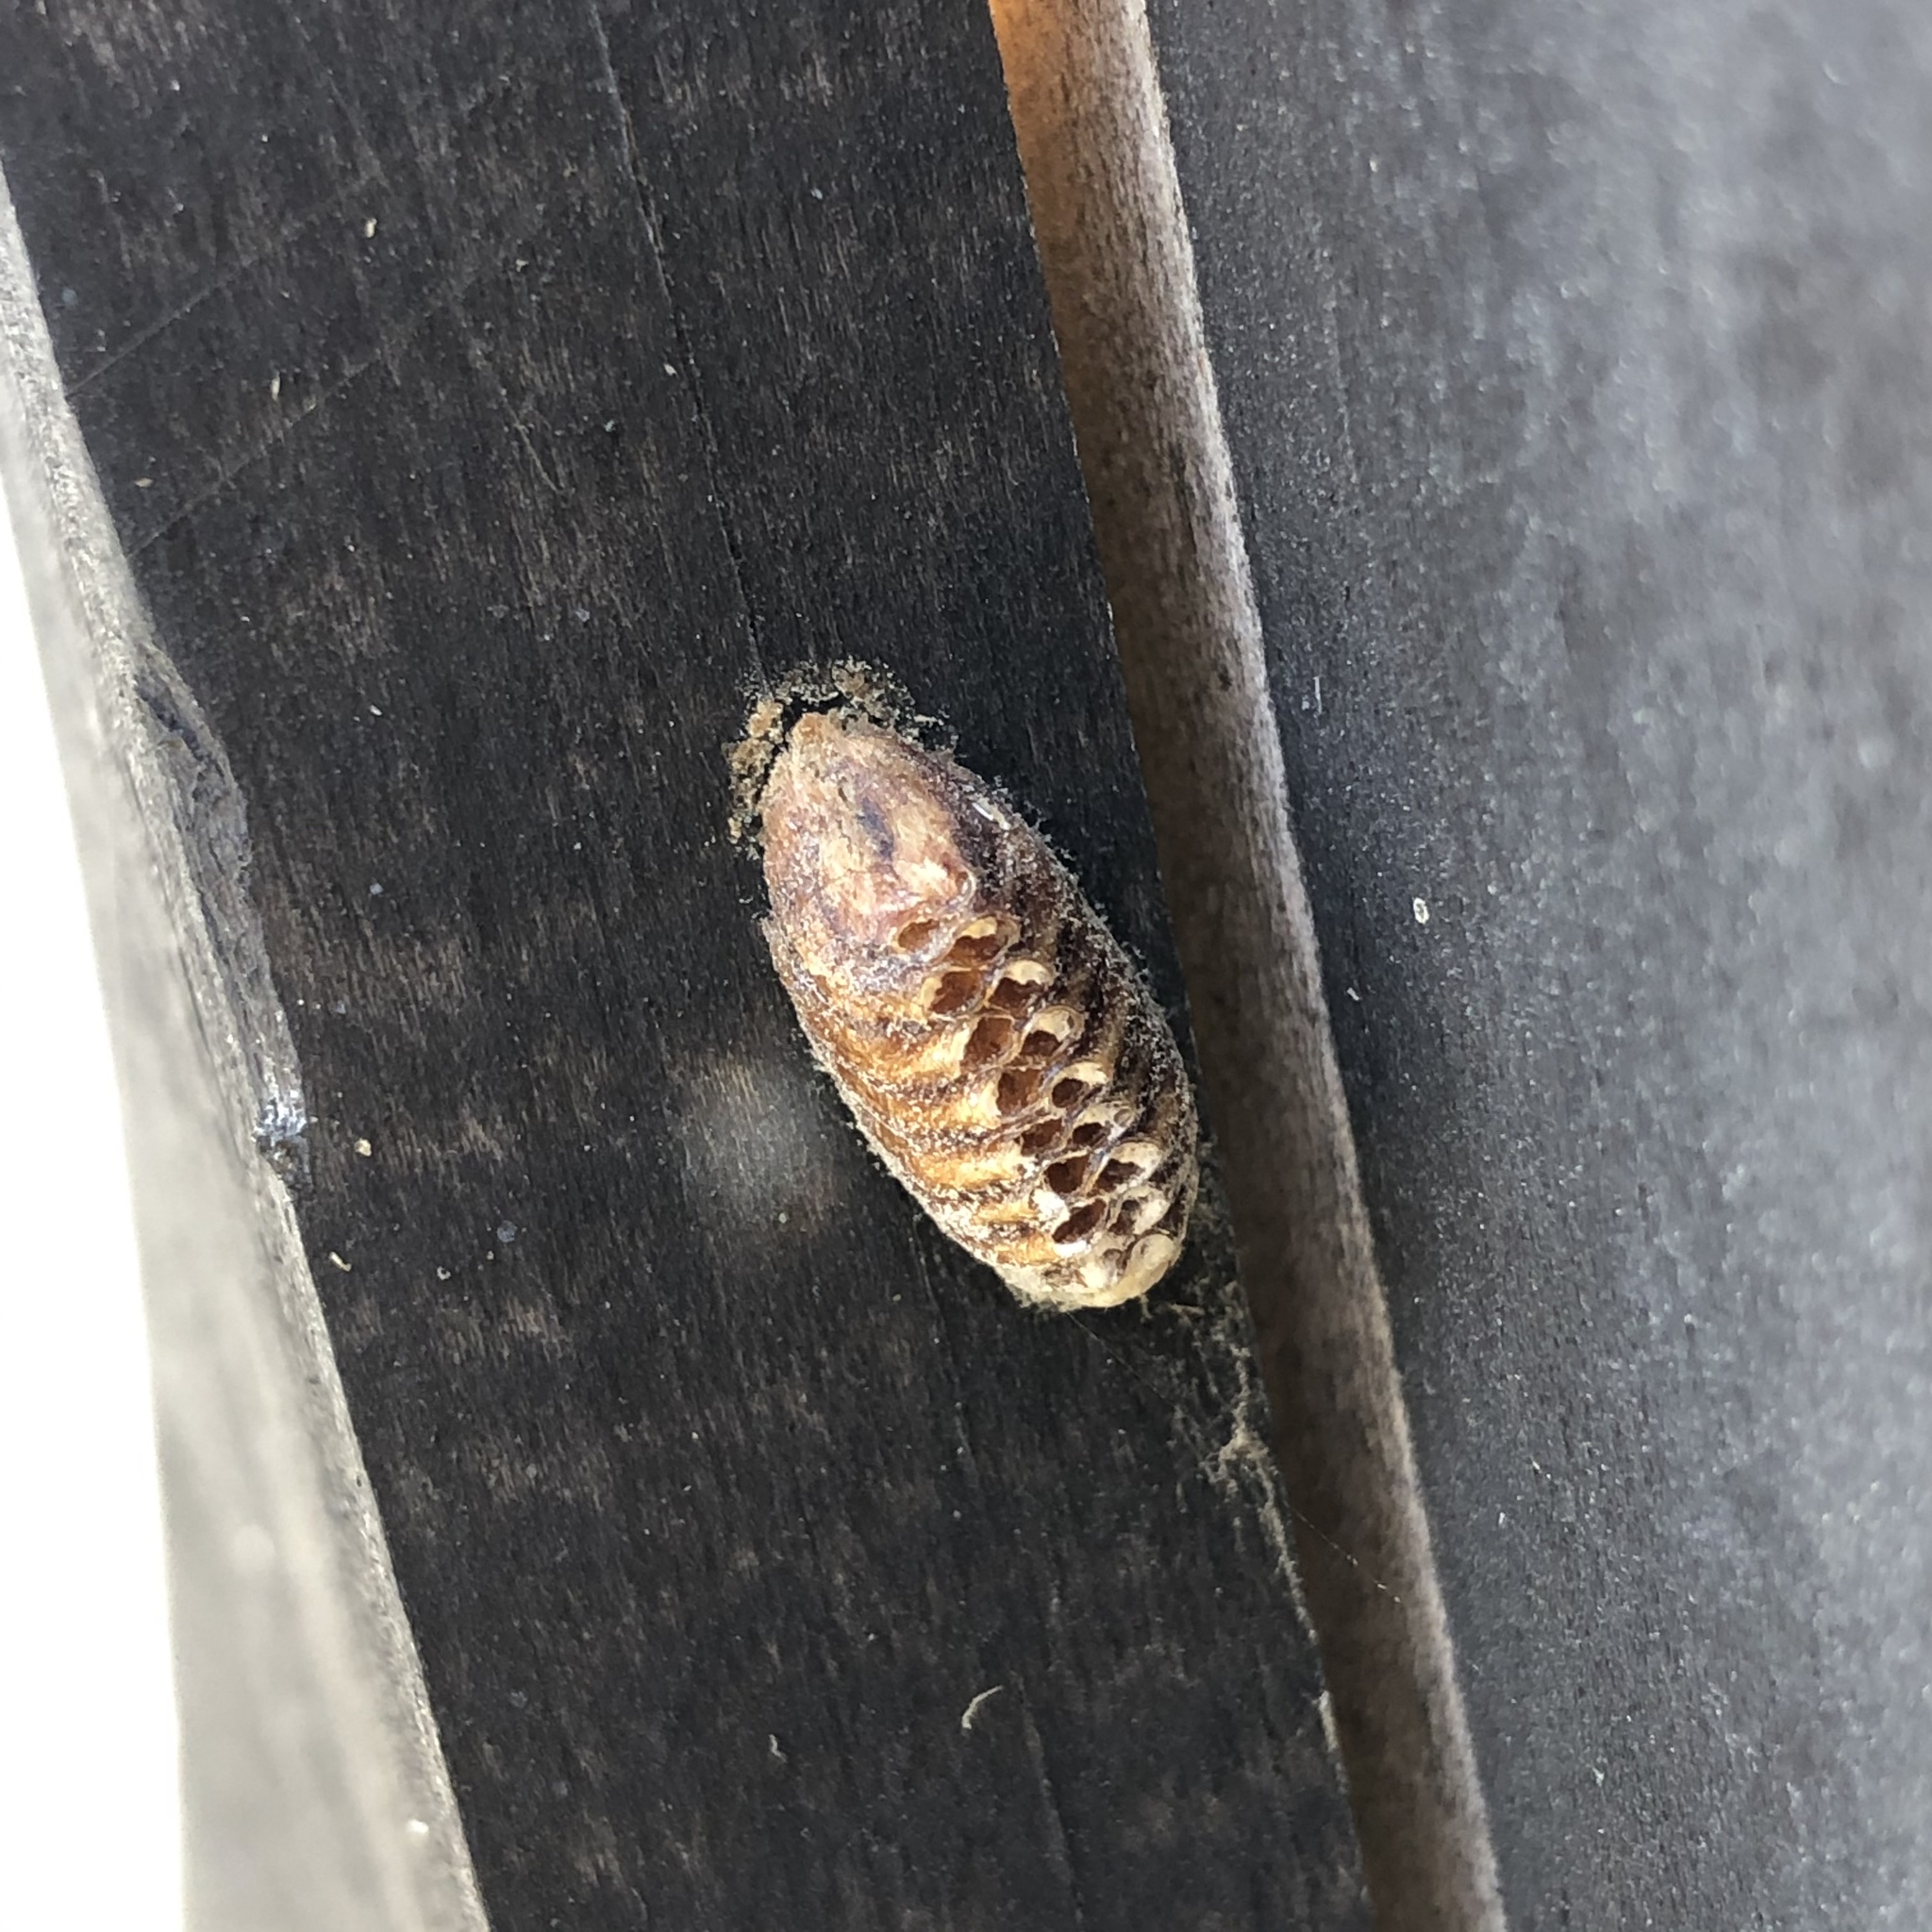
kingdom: Animalia
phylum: Arthropoda
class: Insecta
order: Mantodea
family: Mantidae
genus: Orthodera
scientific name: Orthodera novaezealandiae
